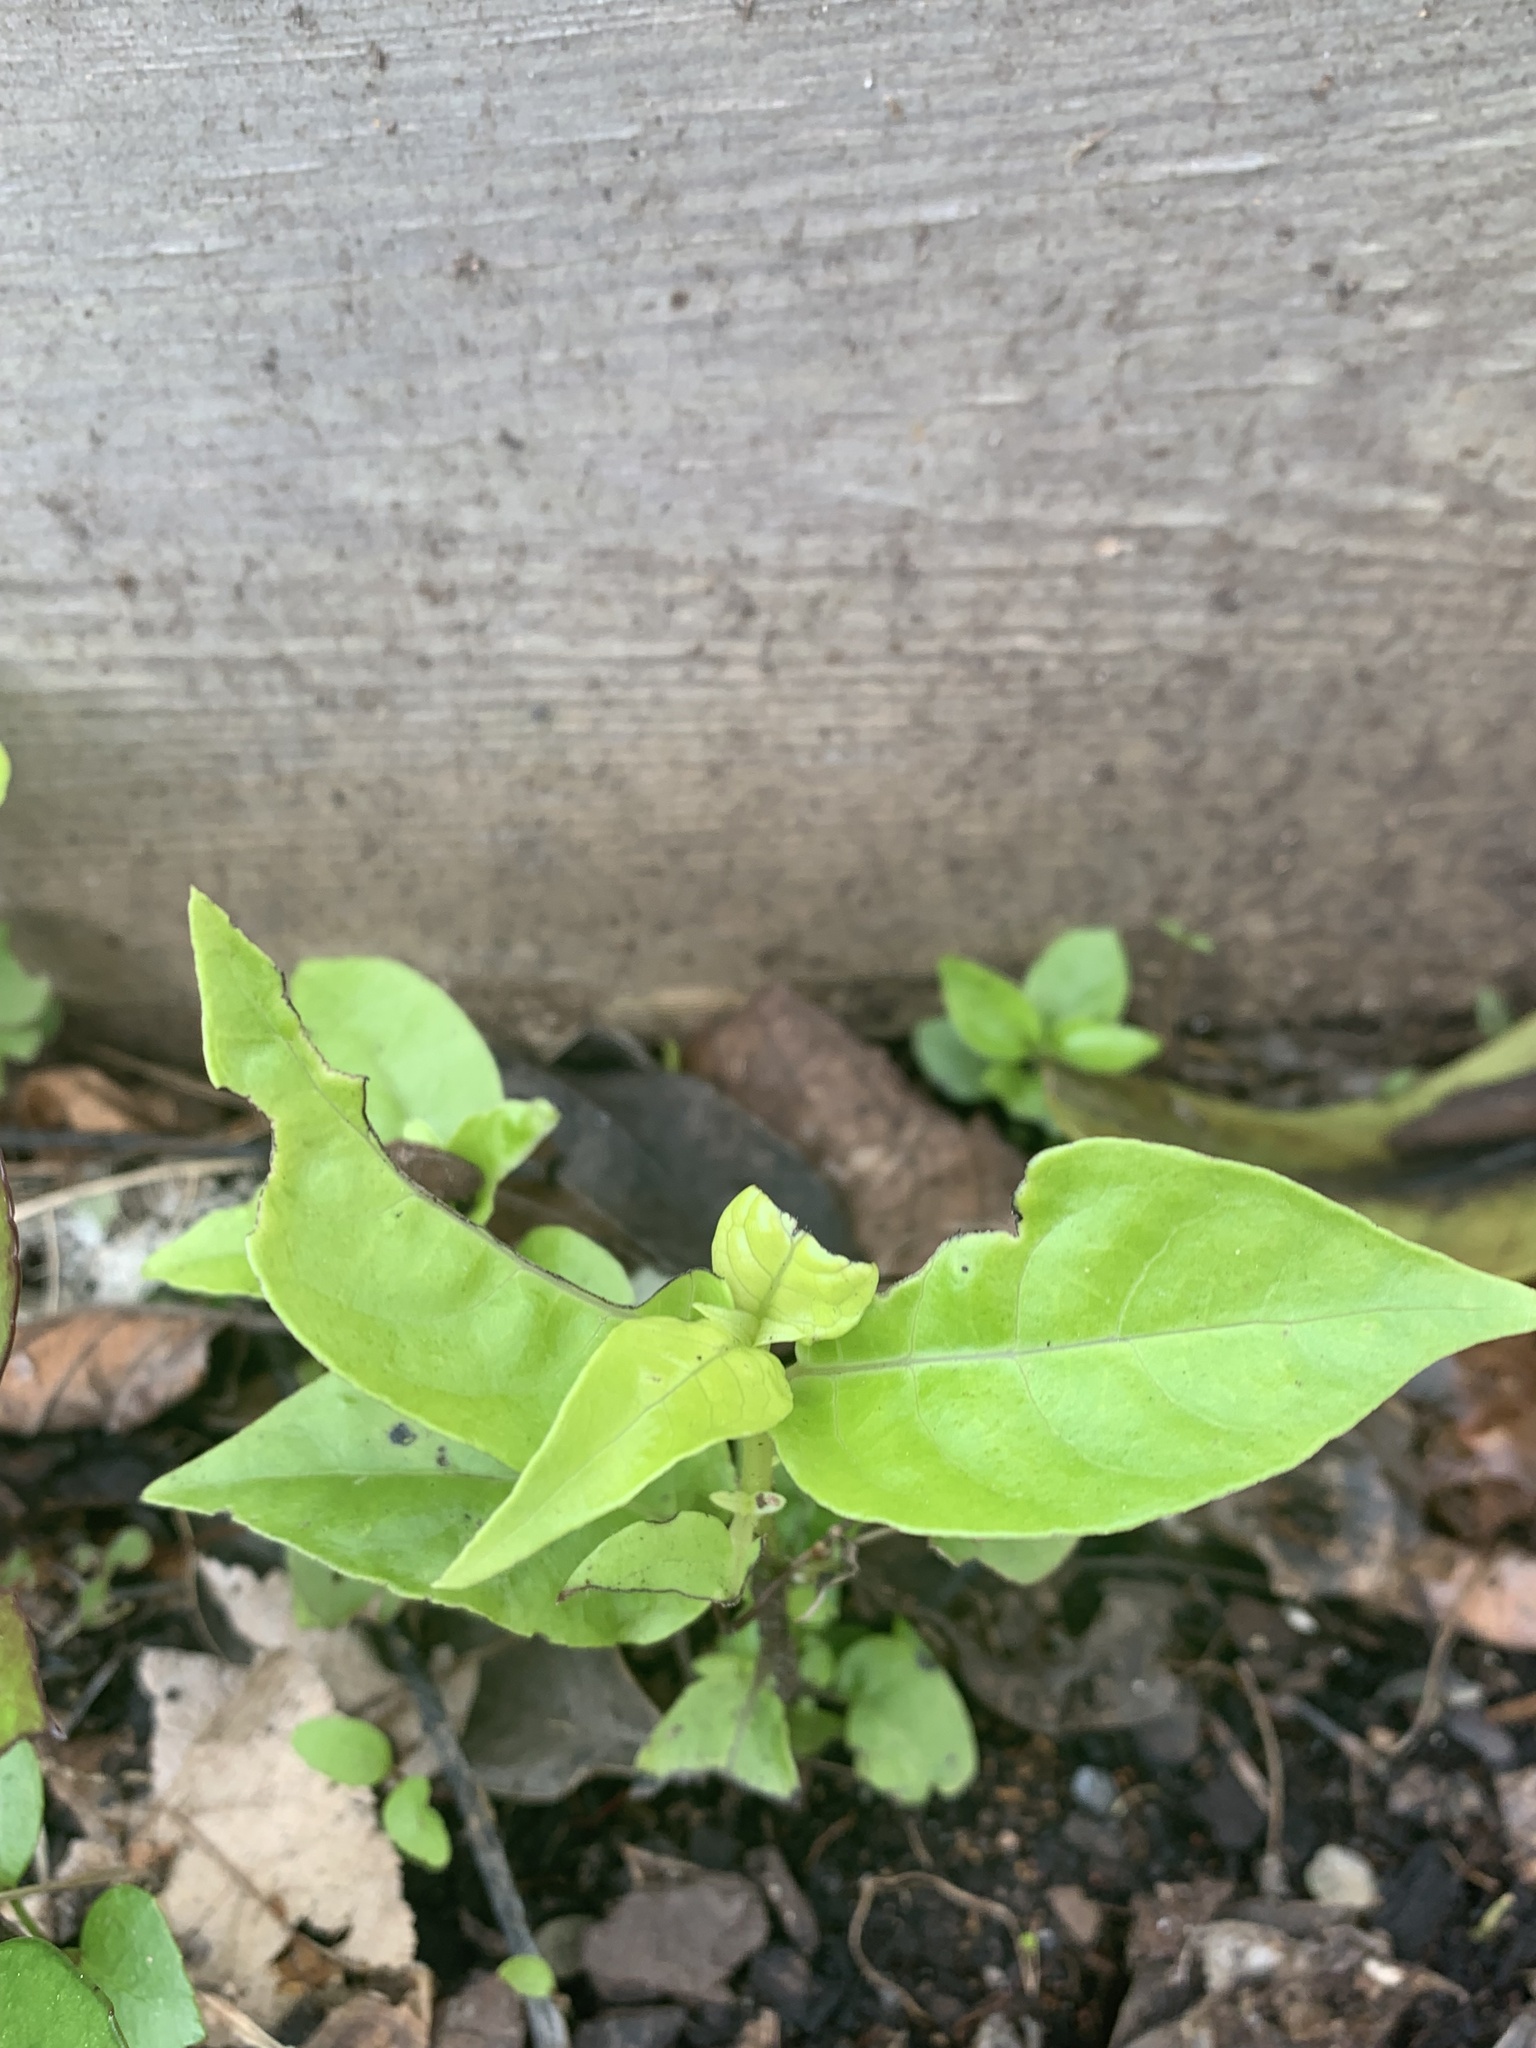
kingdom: Plantae
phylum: Tracheophyta
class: Magnoliopsida
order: Gentianales
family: Loganiaceae
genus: Geniostoma
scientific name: Geniostoma ligustrifolium
